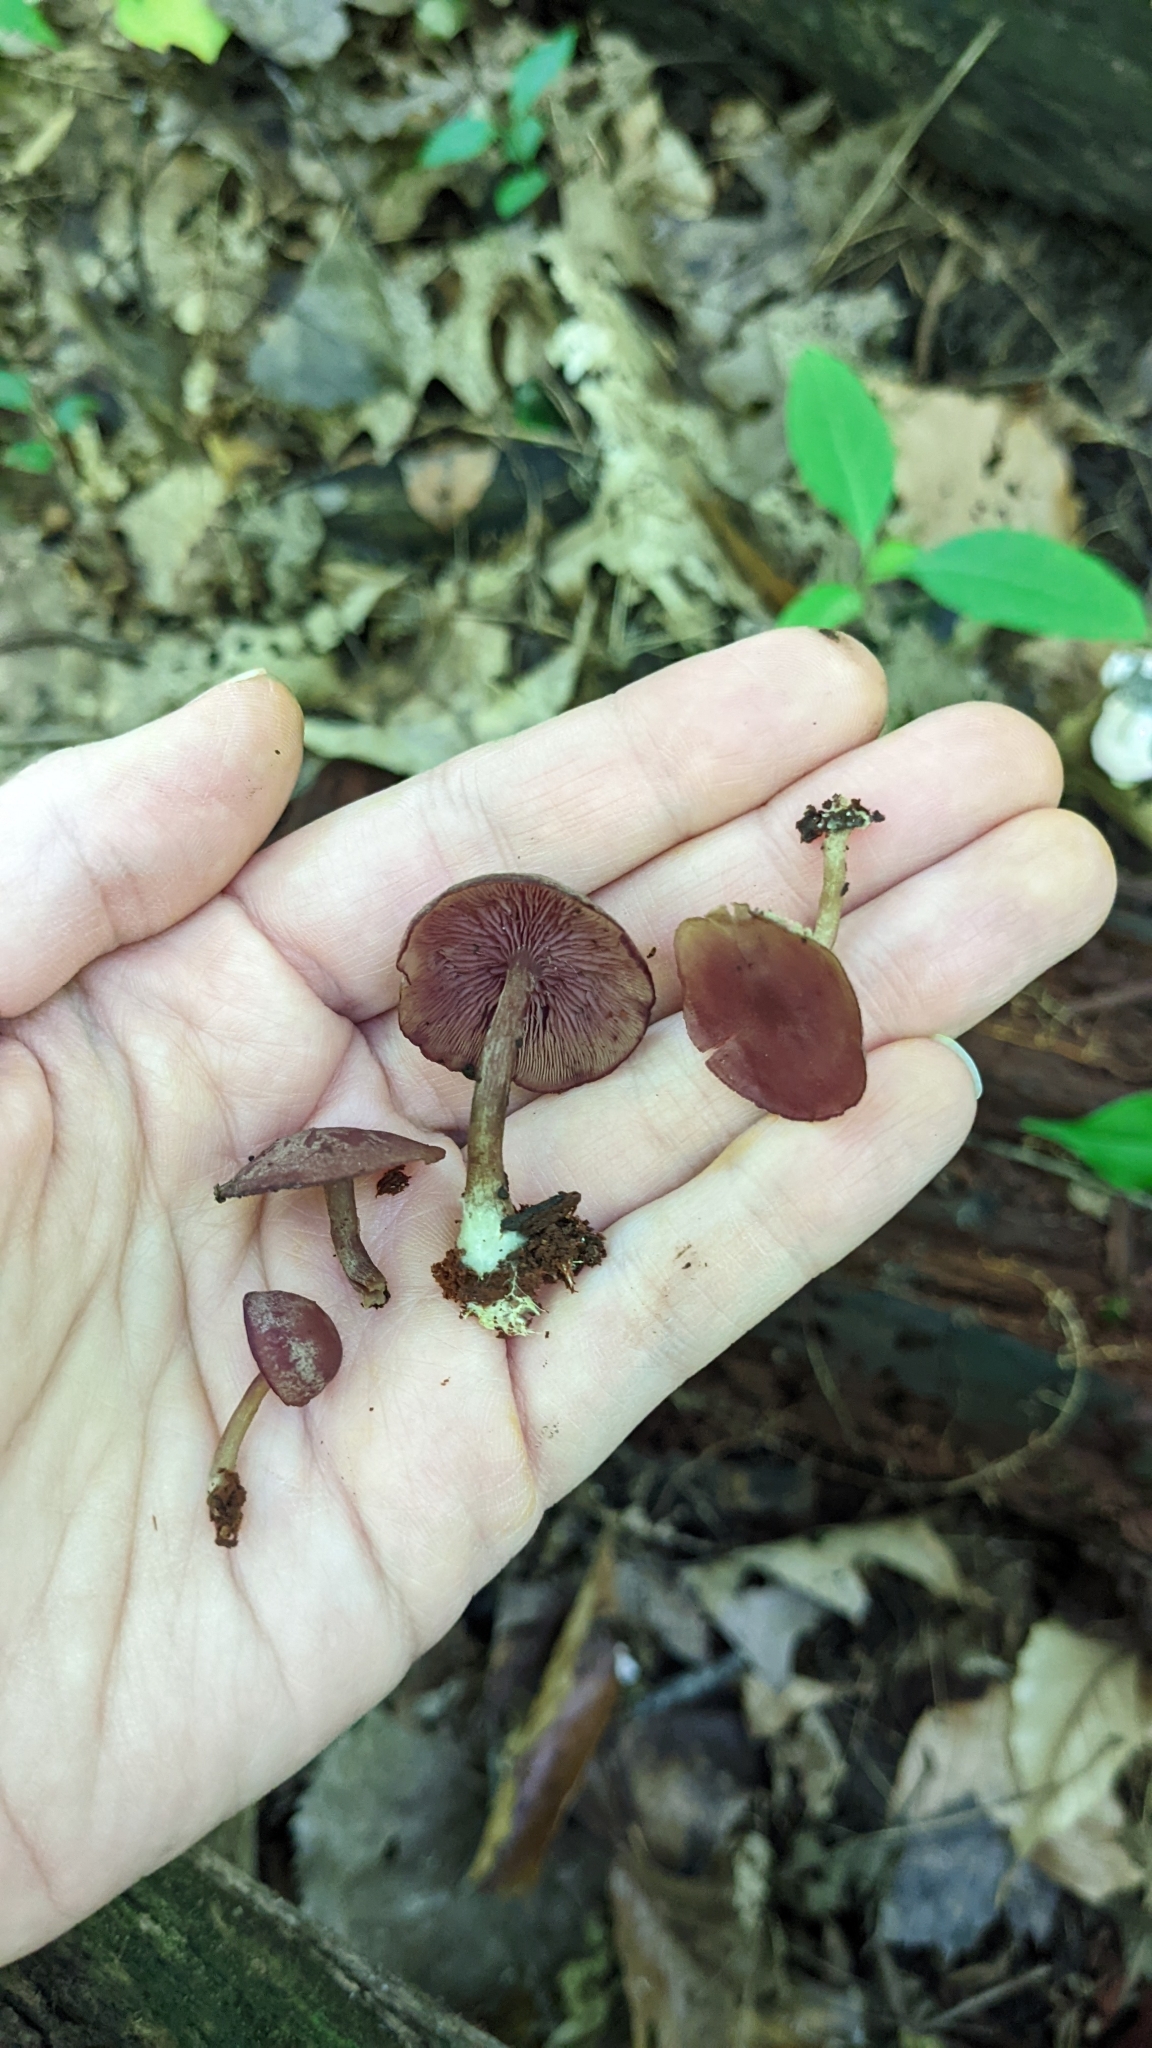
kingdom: Fungi
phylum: Basidiomycota
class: Agaricomycetes
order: Agaricales
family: Callistosporiaceae
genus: Callistosporium
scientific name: Callistosporium purpureomarginatum
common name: Purple-edged lute
